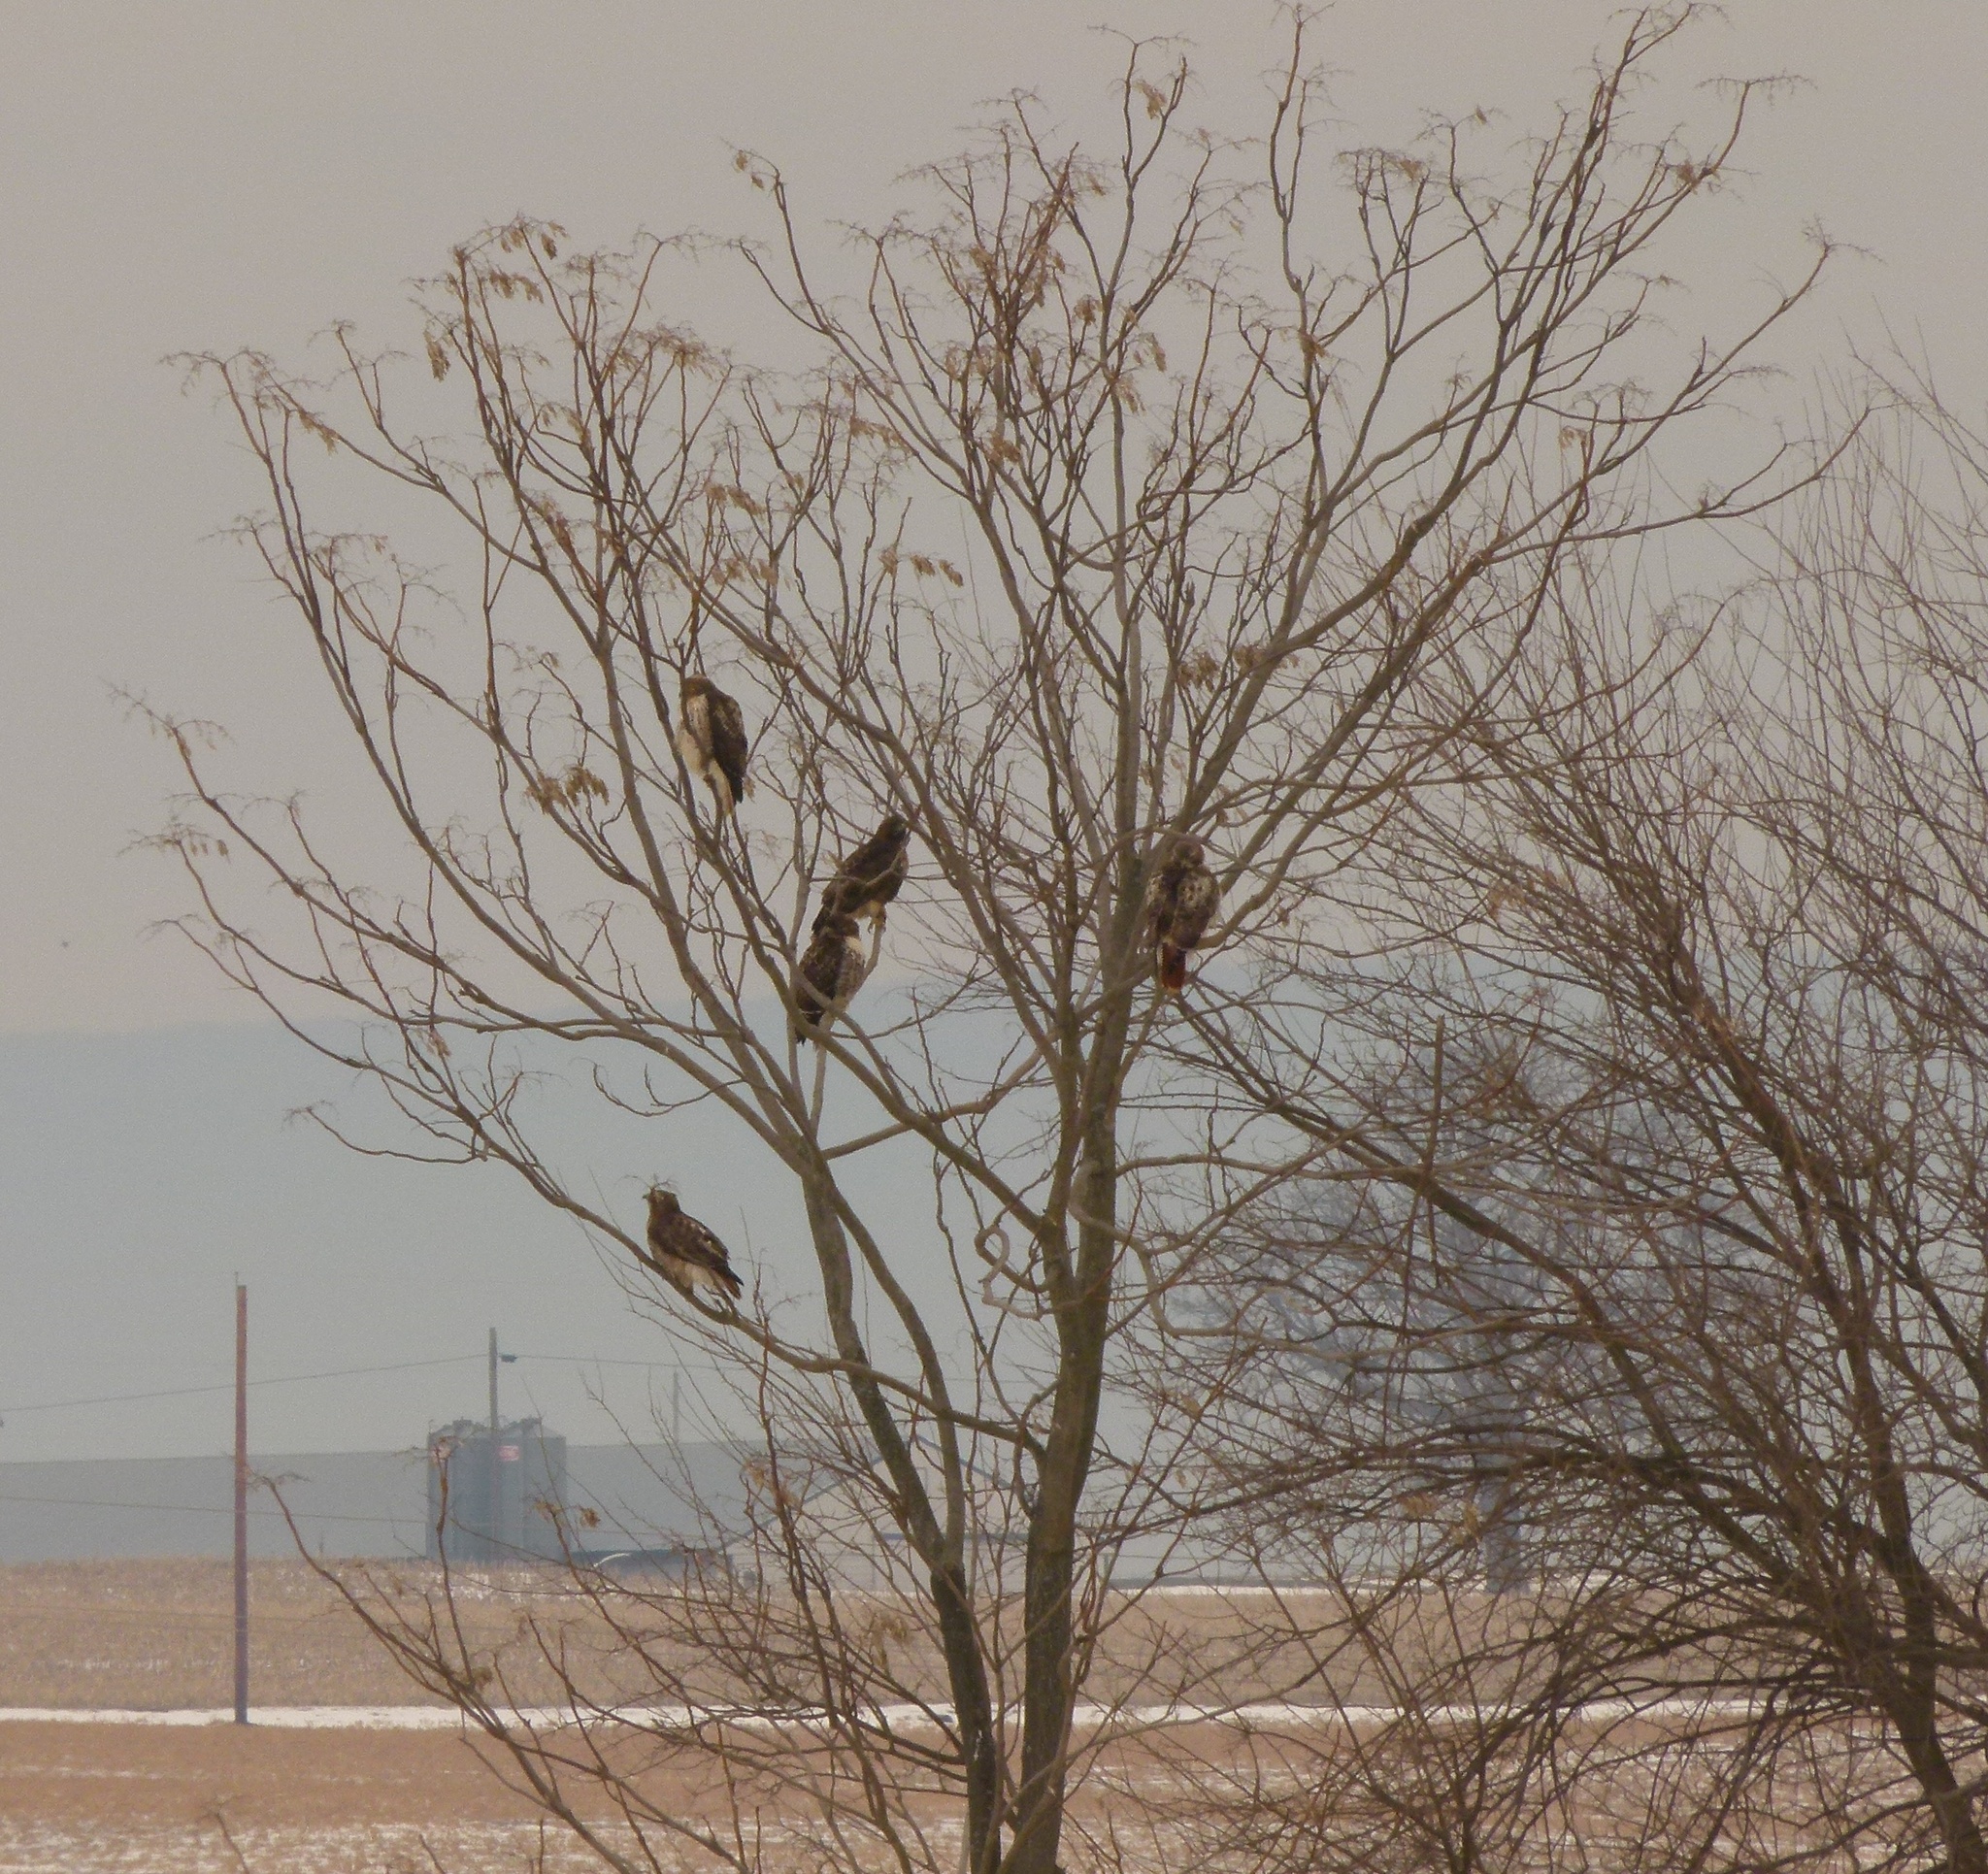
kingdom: Animalia
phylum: Chordata
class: Aves
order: Accipitriformes
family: Accipitridae
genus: Buteo
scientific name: Buteo jamaicensis
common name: Red-tailed hawk
